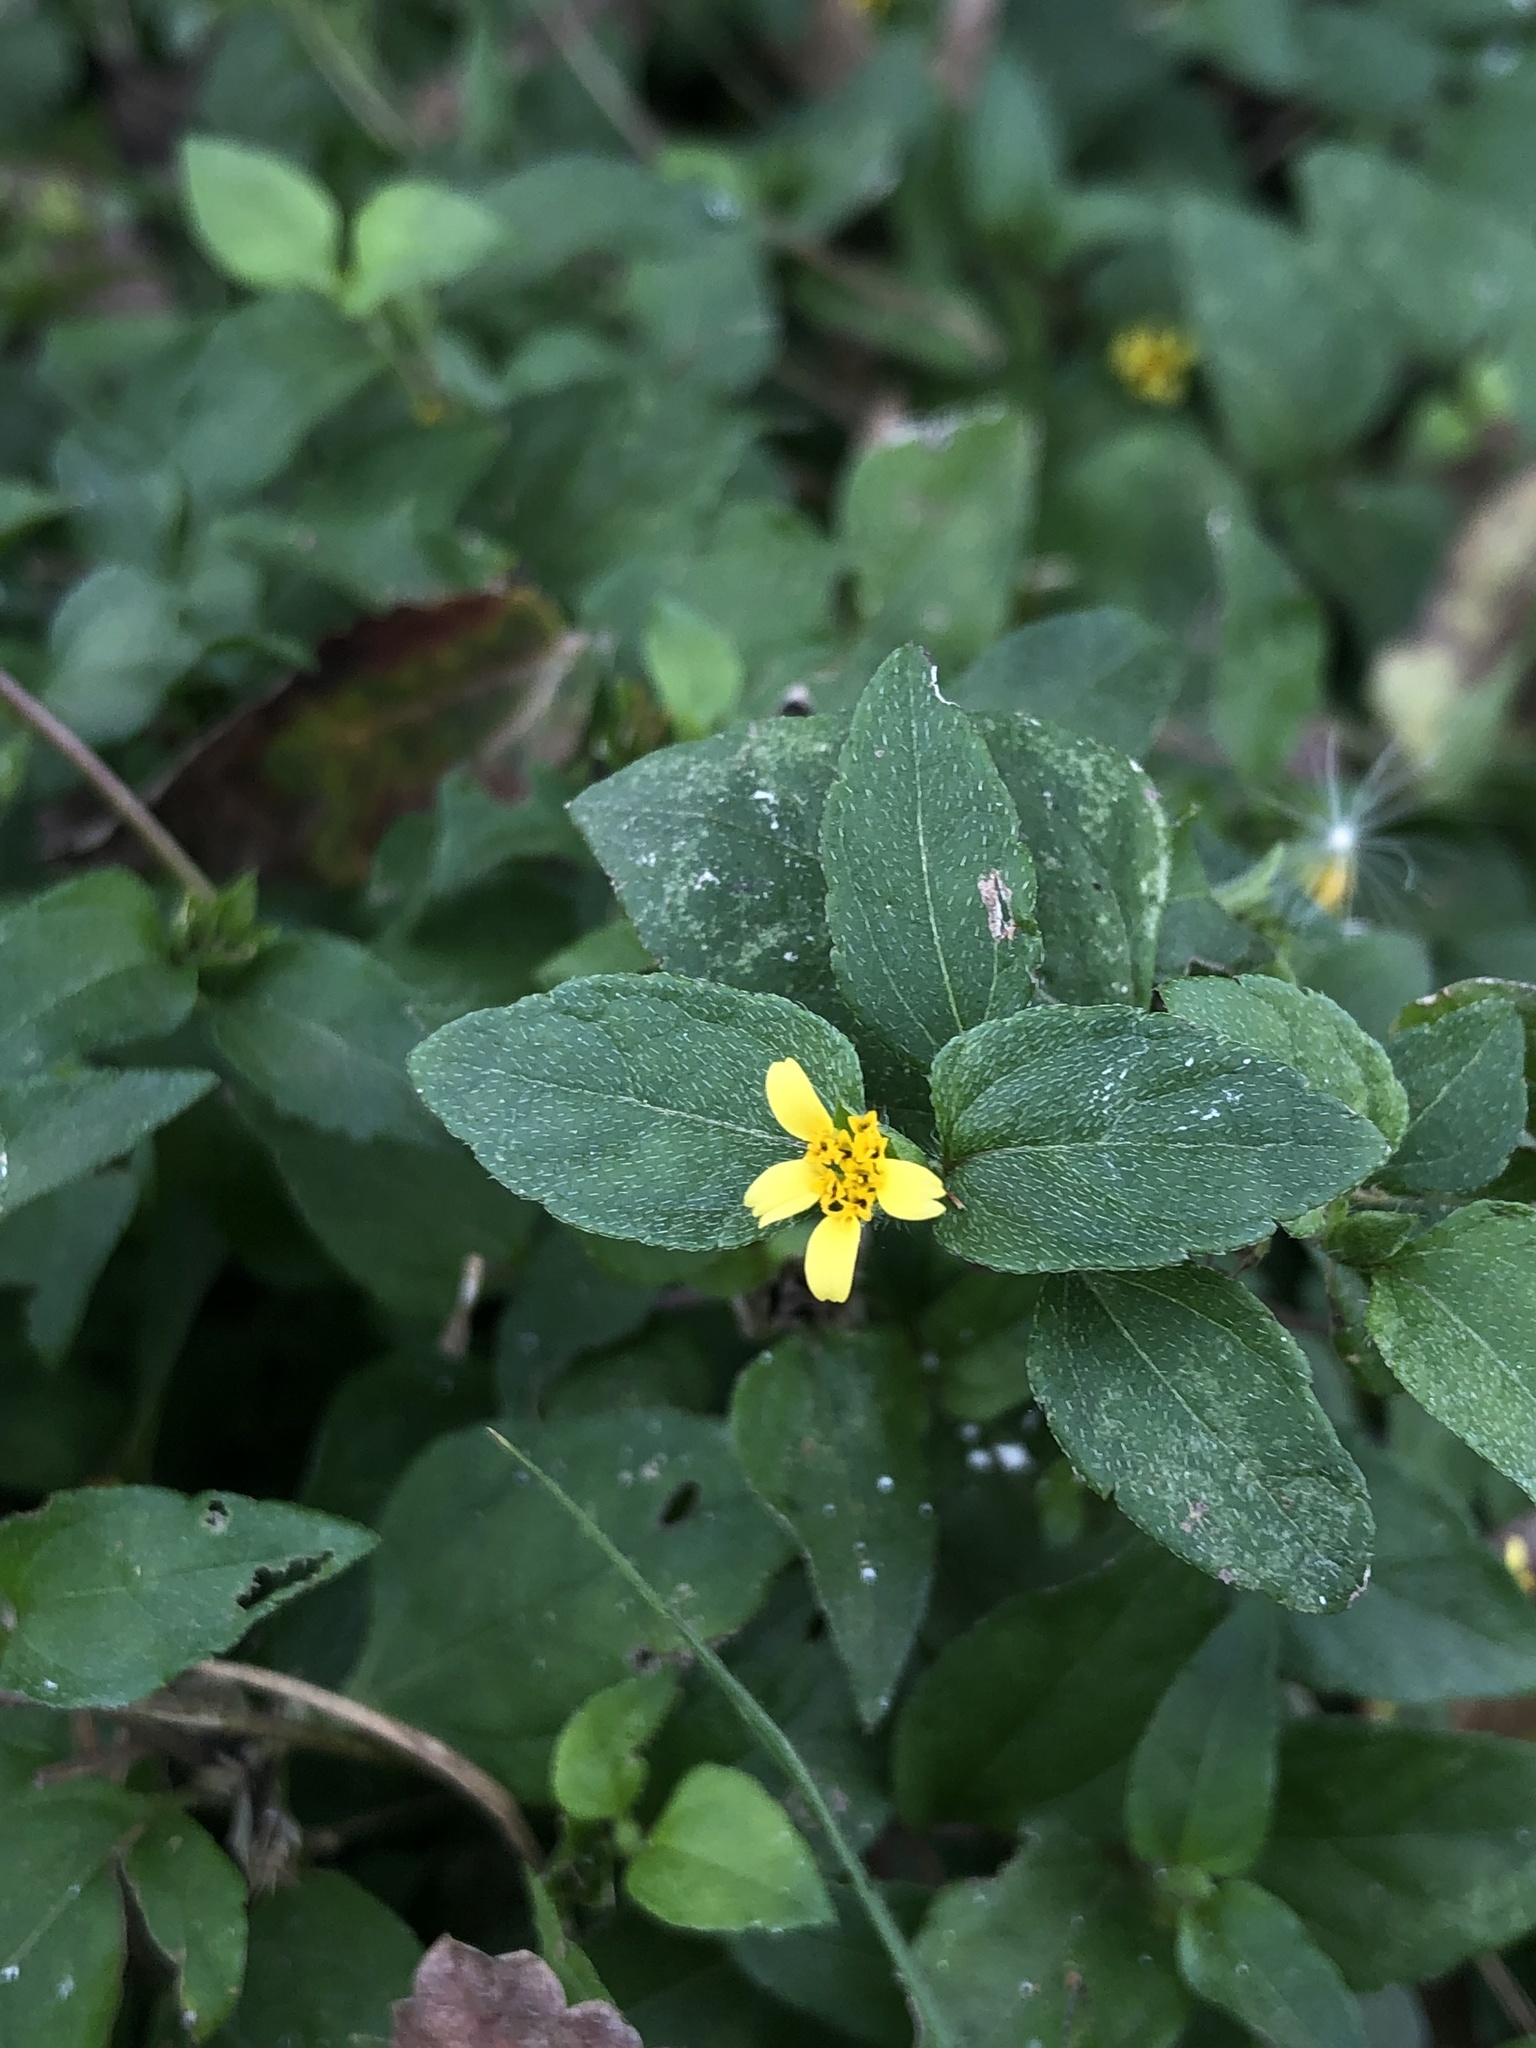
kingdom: Plantae
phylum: Tracheophyta
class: Magnoliopsida
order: Asterales
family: Asteraceae
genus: Calyptocarpus
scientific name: Calyptocarpus vialis
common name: Straggler daisy
